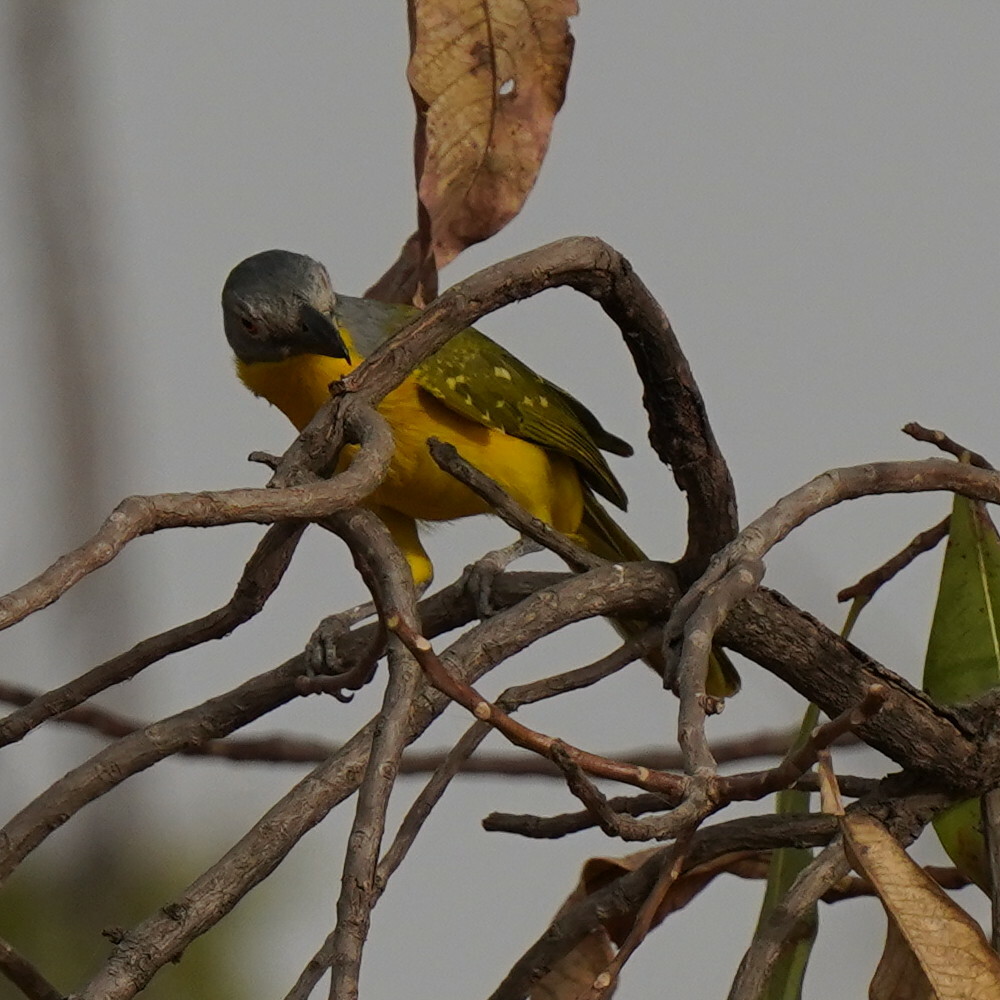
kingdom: Animalia
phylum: Chordata
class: Aves
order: Passeriformes
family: Malaconotidae
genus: Malaconotus
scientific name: Malaconotus blanchoti
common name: Grey-headed bushshrike
